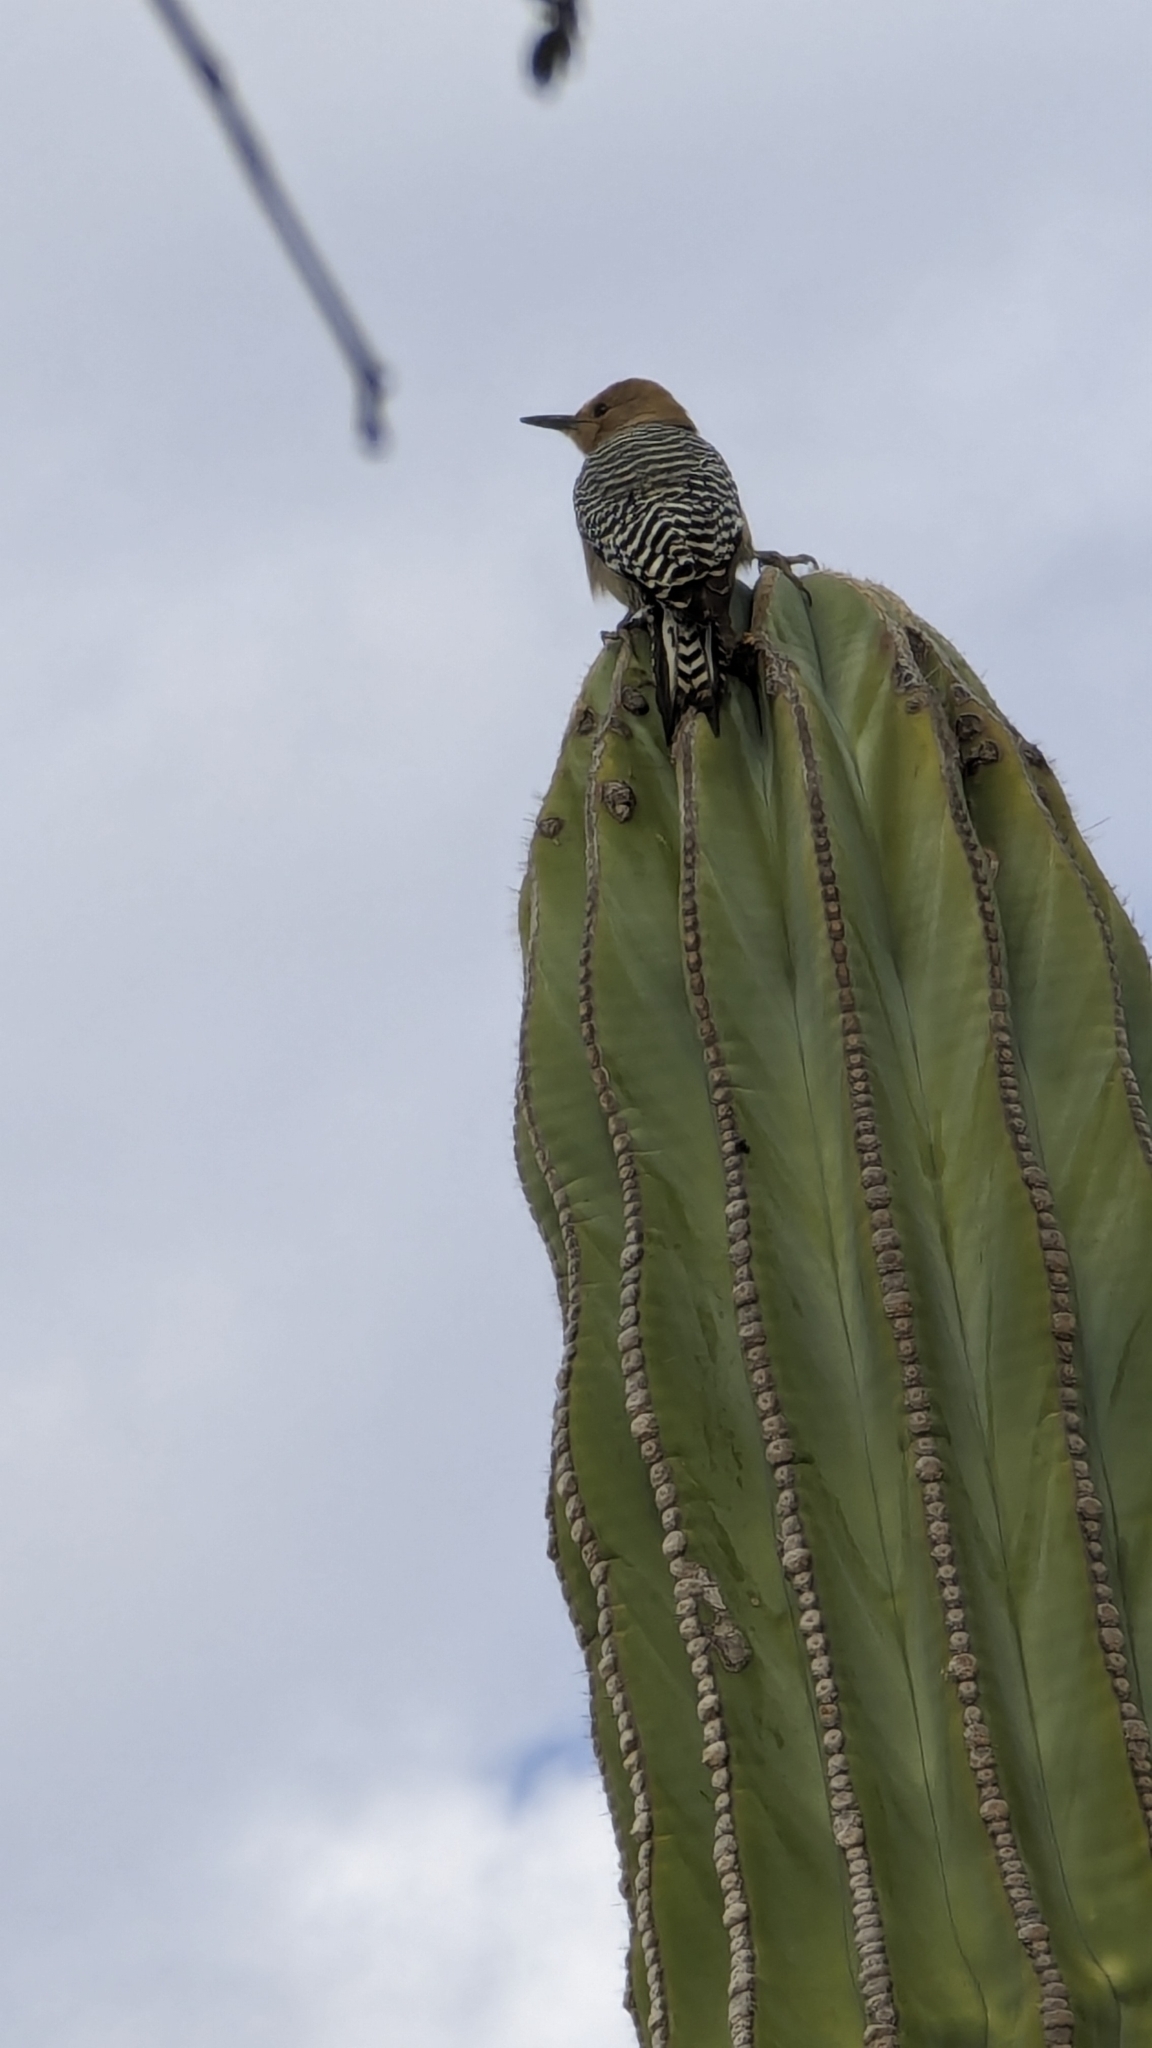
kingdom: Animalia
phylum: Chordata
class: Aves
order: Piciformes
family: Picidae
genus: Melanerpes
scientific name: Melanerpes uropygialis
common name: Gila woodpecker
